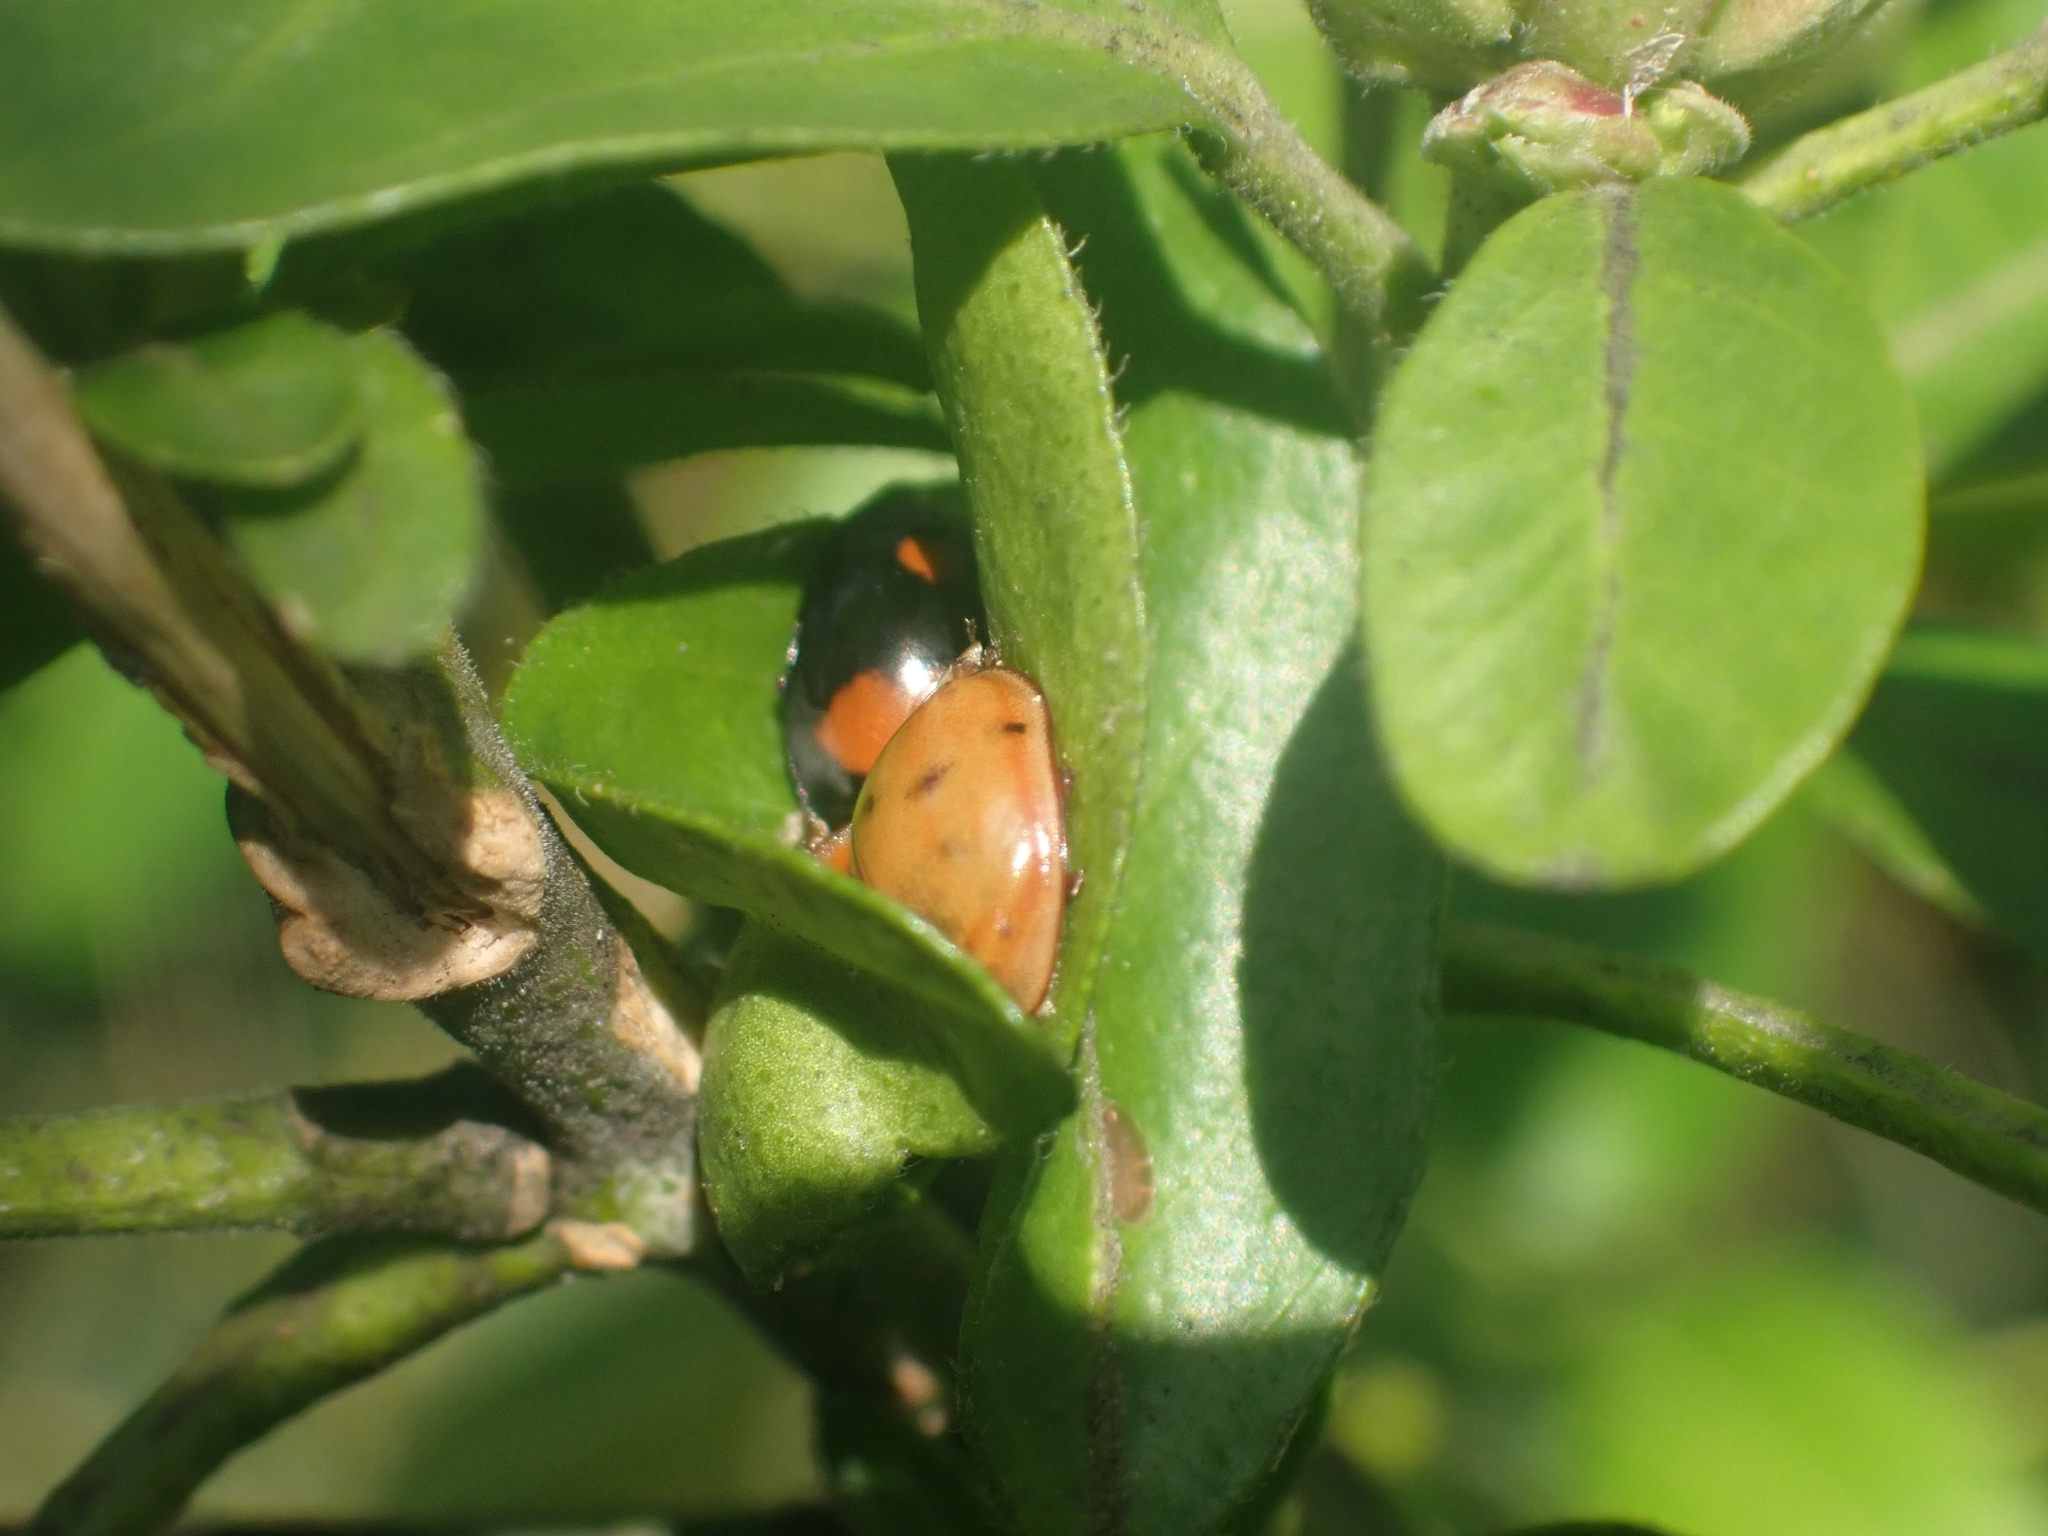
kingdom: Animalia
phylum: Arthropoda
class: Insecta
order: Coleoptera
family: Coccinellidae
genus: Harmonia
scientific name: Harmonia axyridis
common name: Harlequin ladybird
